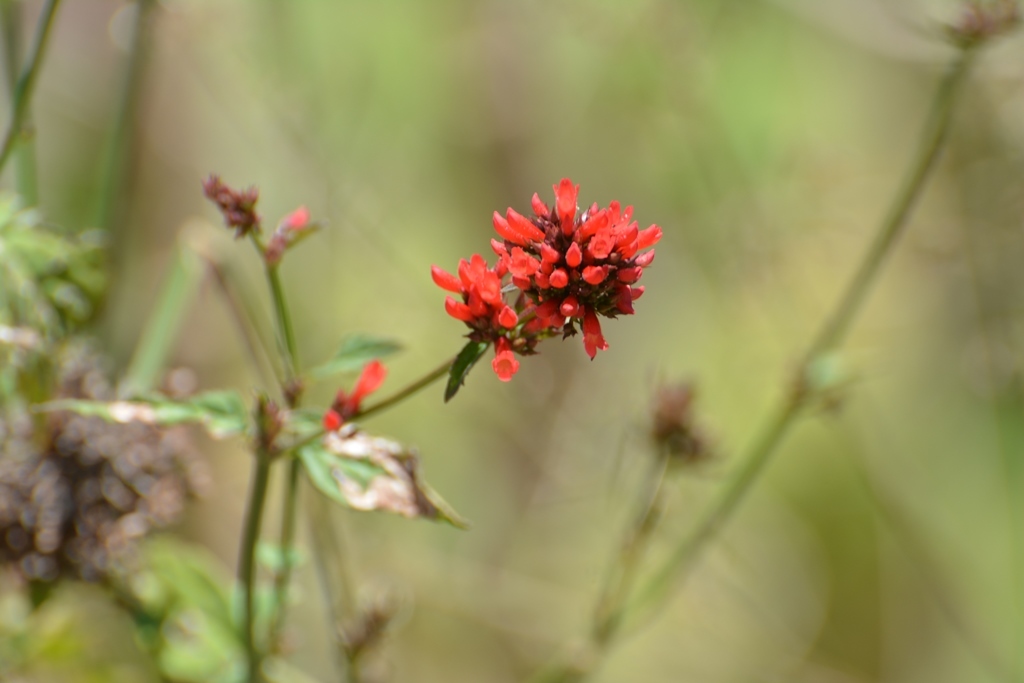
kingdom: Plantae
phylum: Tracheophyta
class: Magnoliopsida
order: Lamiales
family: Plantaginaceae
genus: Russelia
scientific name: Russelia verticillata
